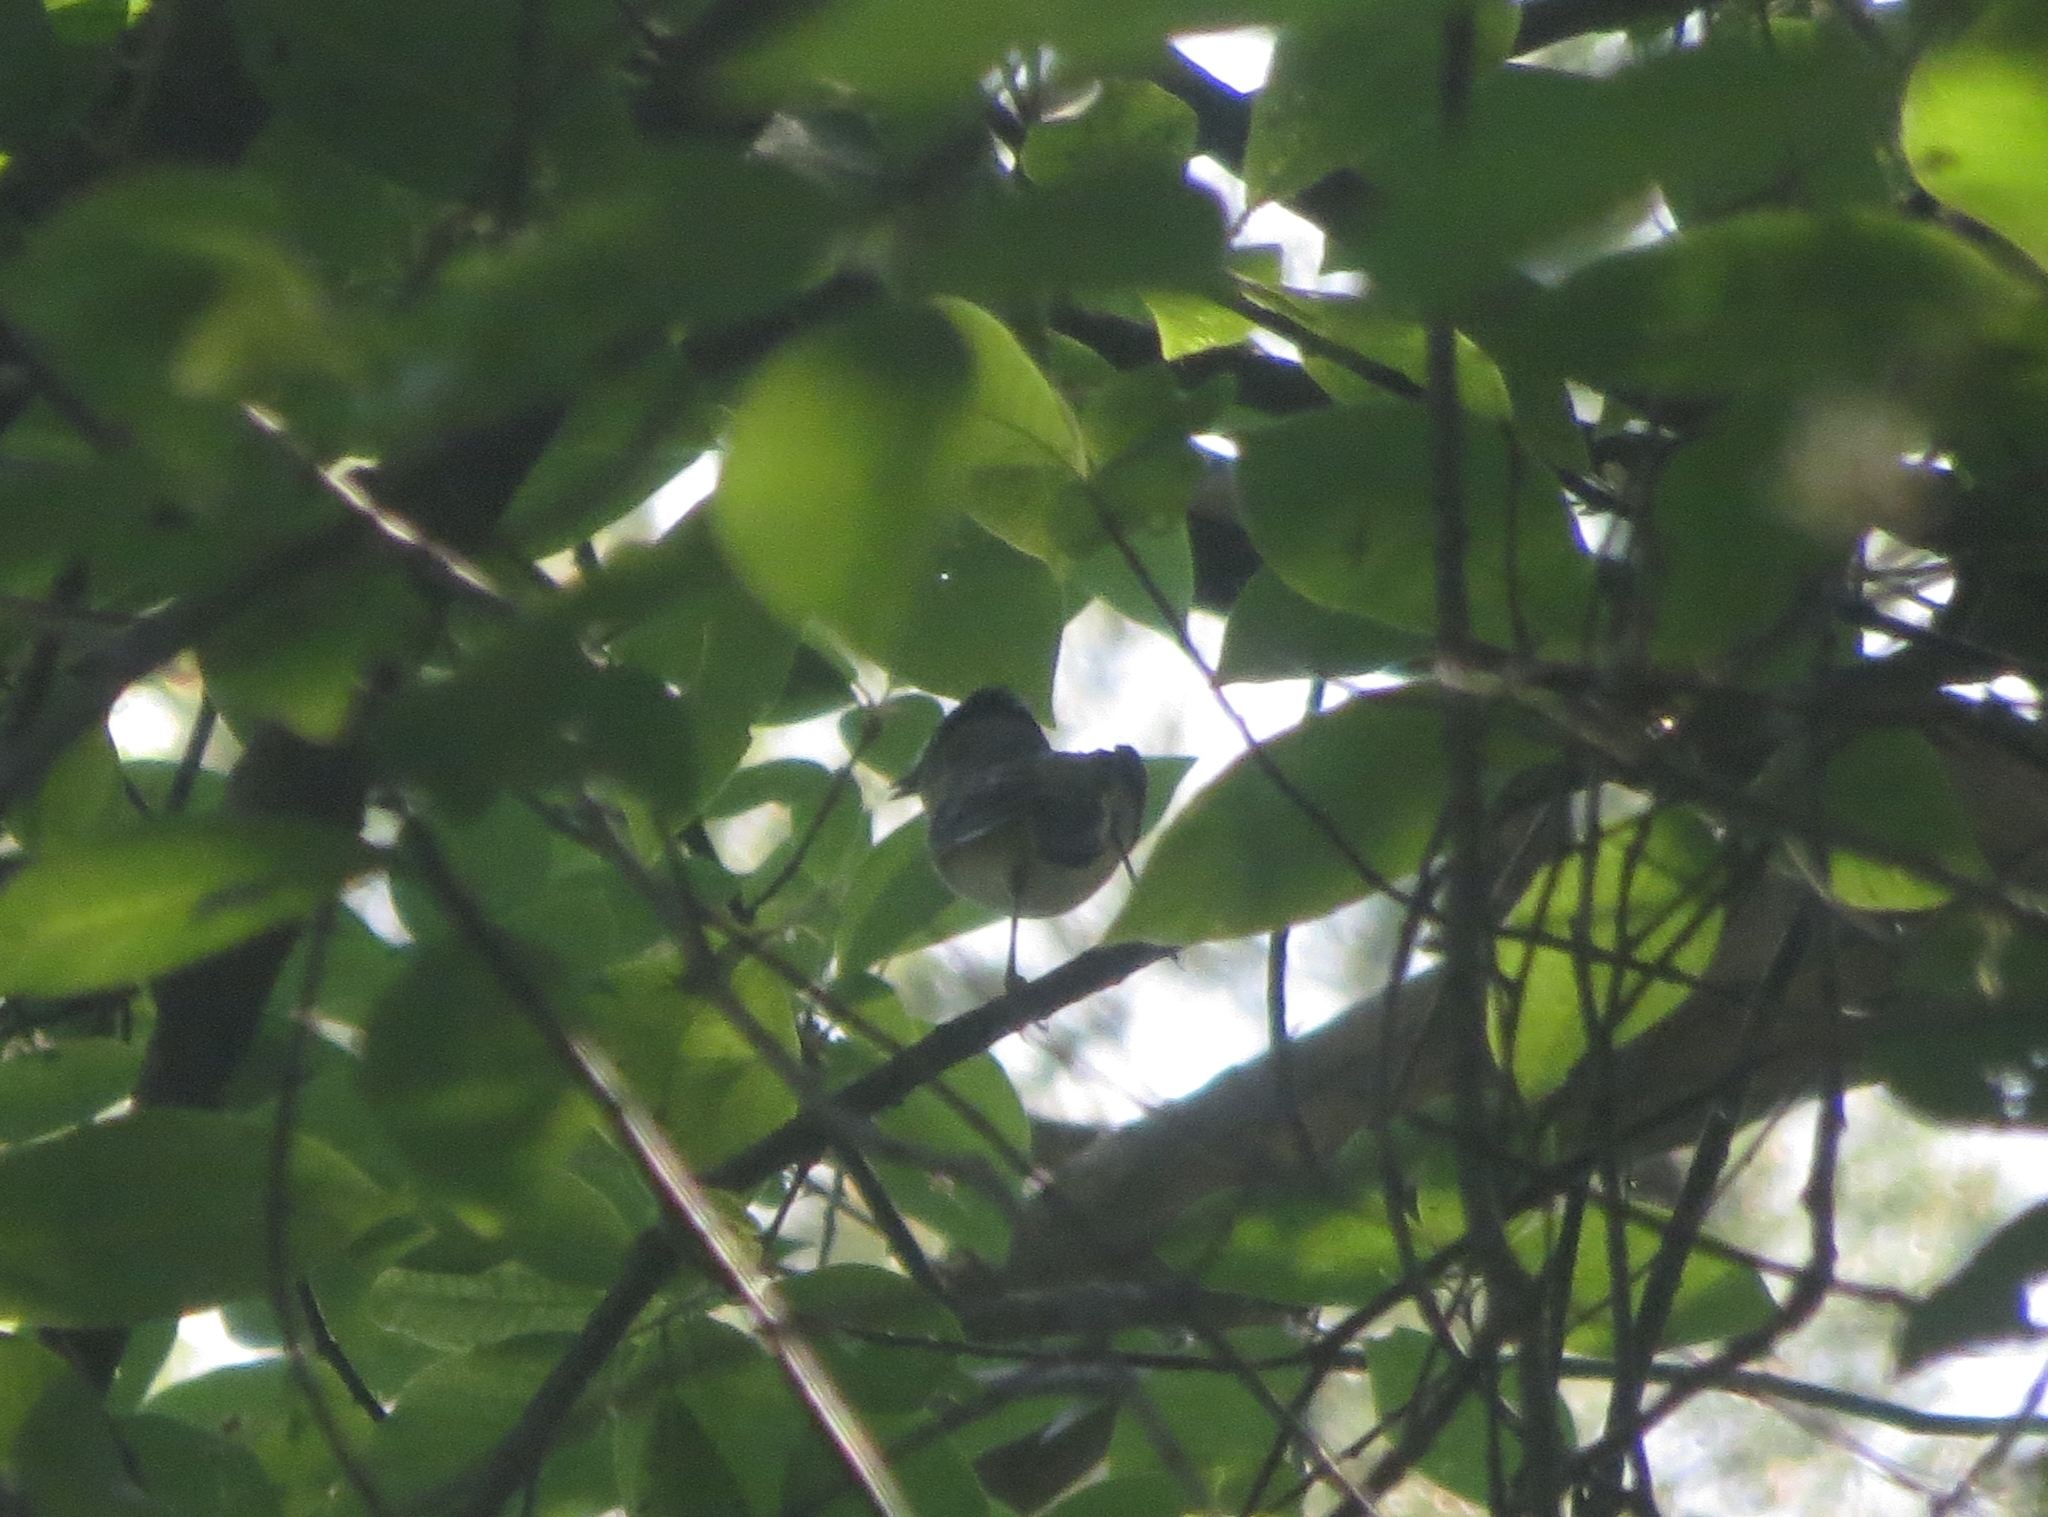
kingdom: Animalia
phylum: Chordata
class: Aves
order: Passeriformes
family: Sylviidae
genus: Sylvia
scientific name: Sylvia atricapilla
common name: Eurasian blackcap
